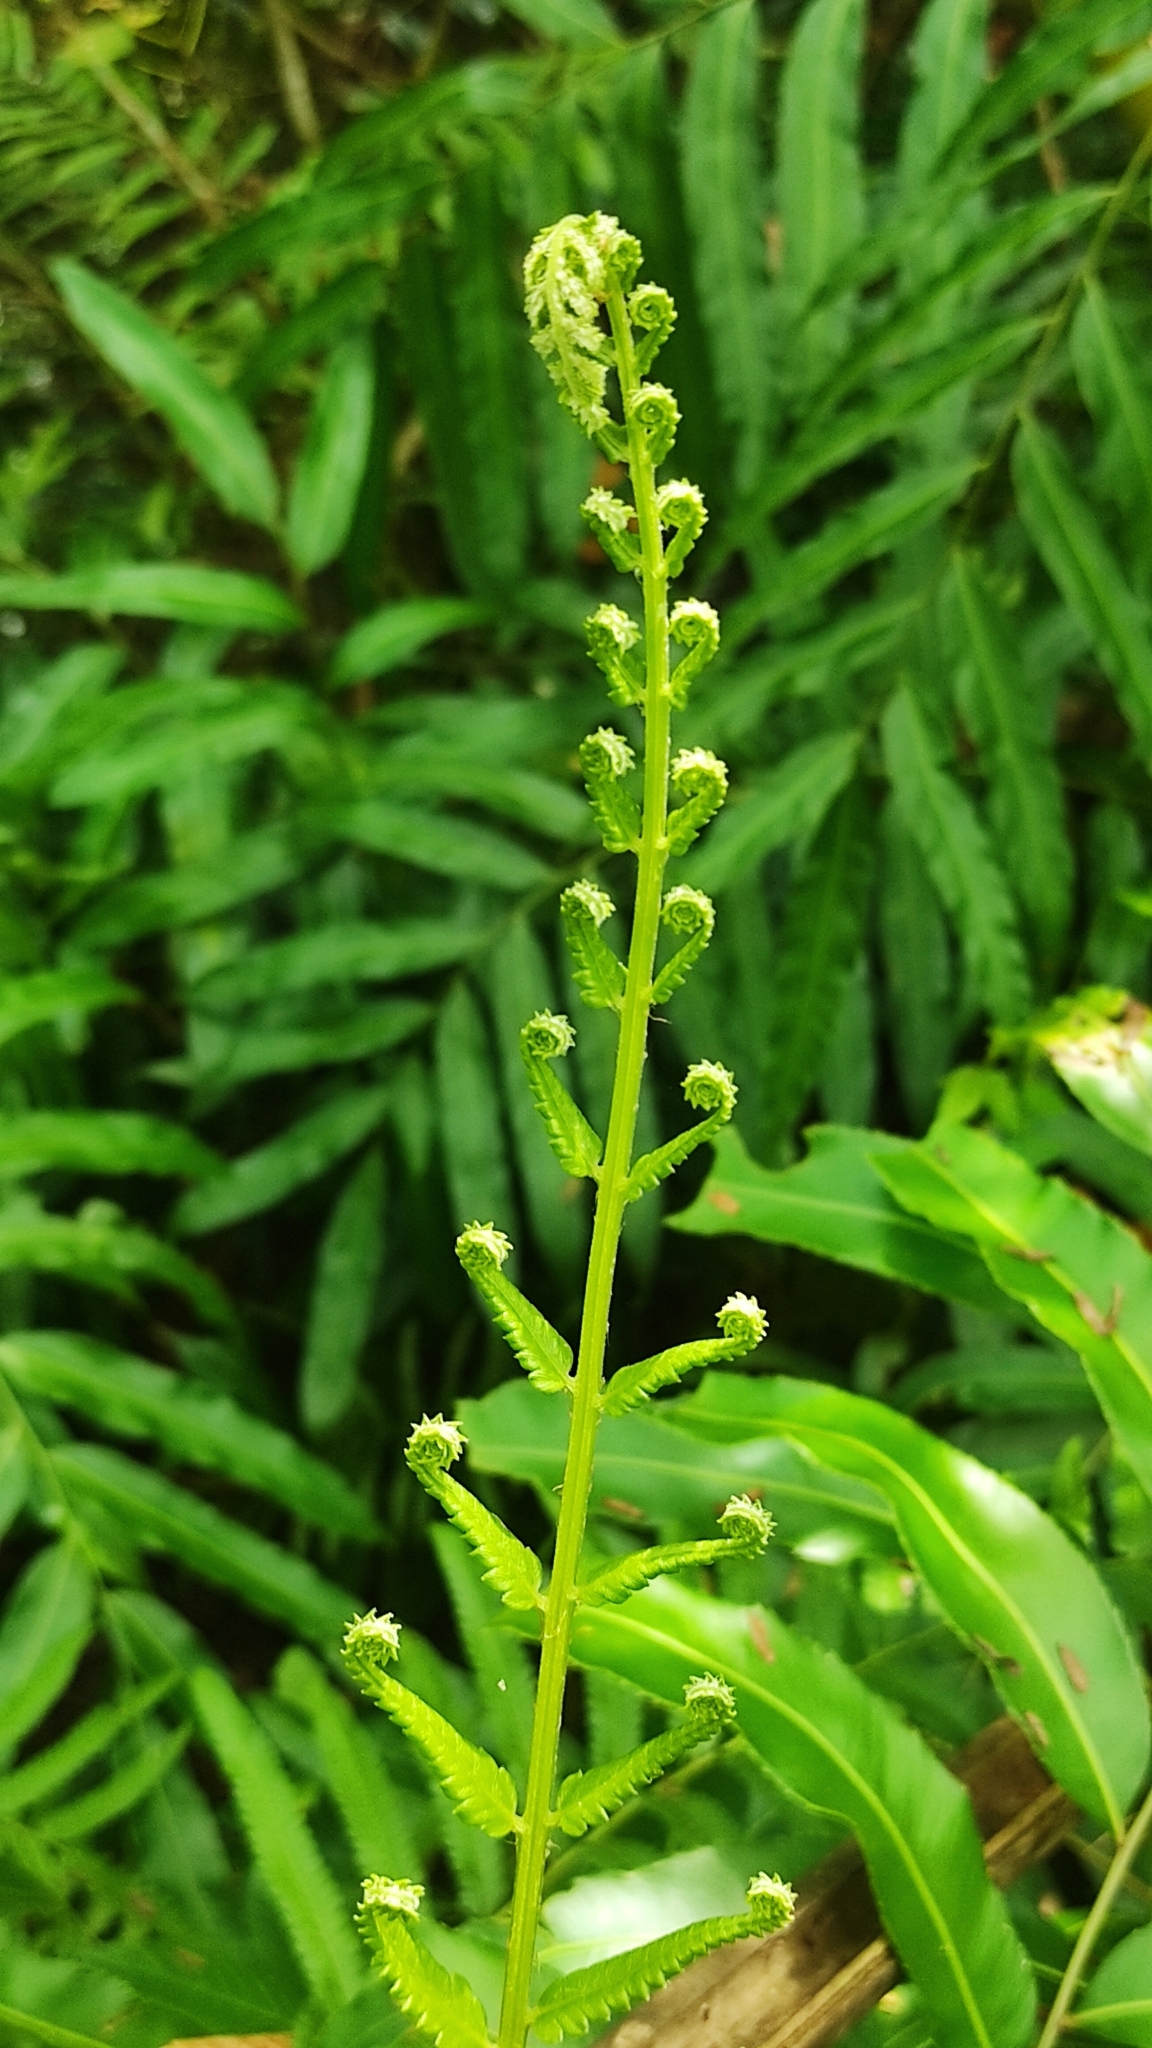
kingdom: Plantae
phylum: Tracheophyta
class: Polypodiopsida
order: Polypodiales
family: Thelypteridaceae
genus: Cyclosorus
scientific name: Cyclosorus interruptus
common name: Neke fern
